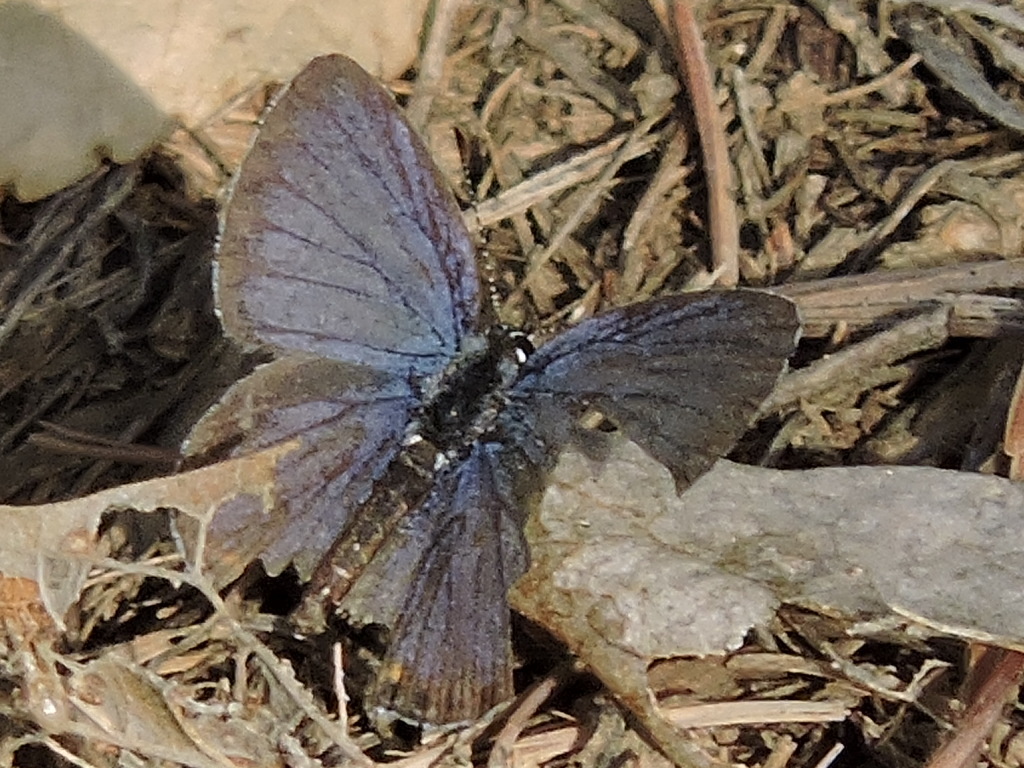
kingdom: Animalia
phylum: Arthropoda
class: Insecta
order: Lepidoptera
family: Lycaenidae
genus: Elkalyce
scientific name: Elkalyce comyntas
